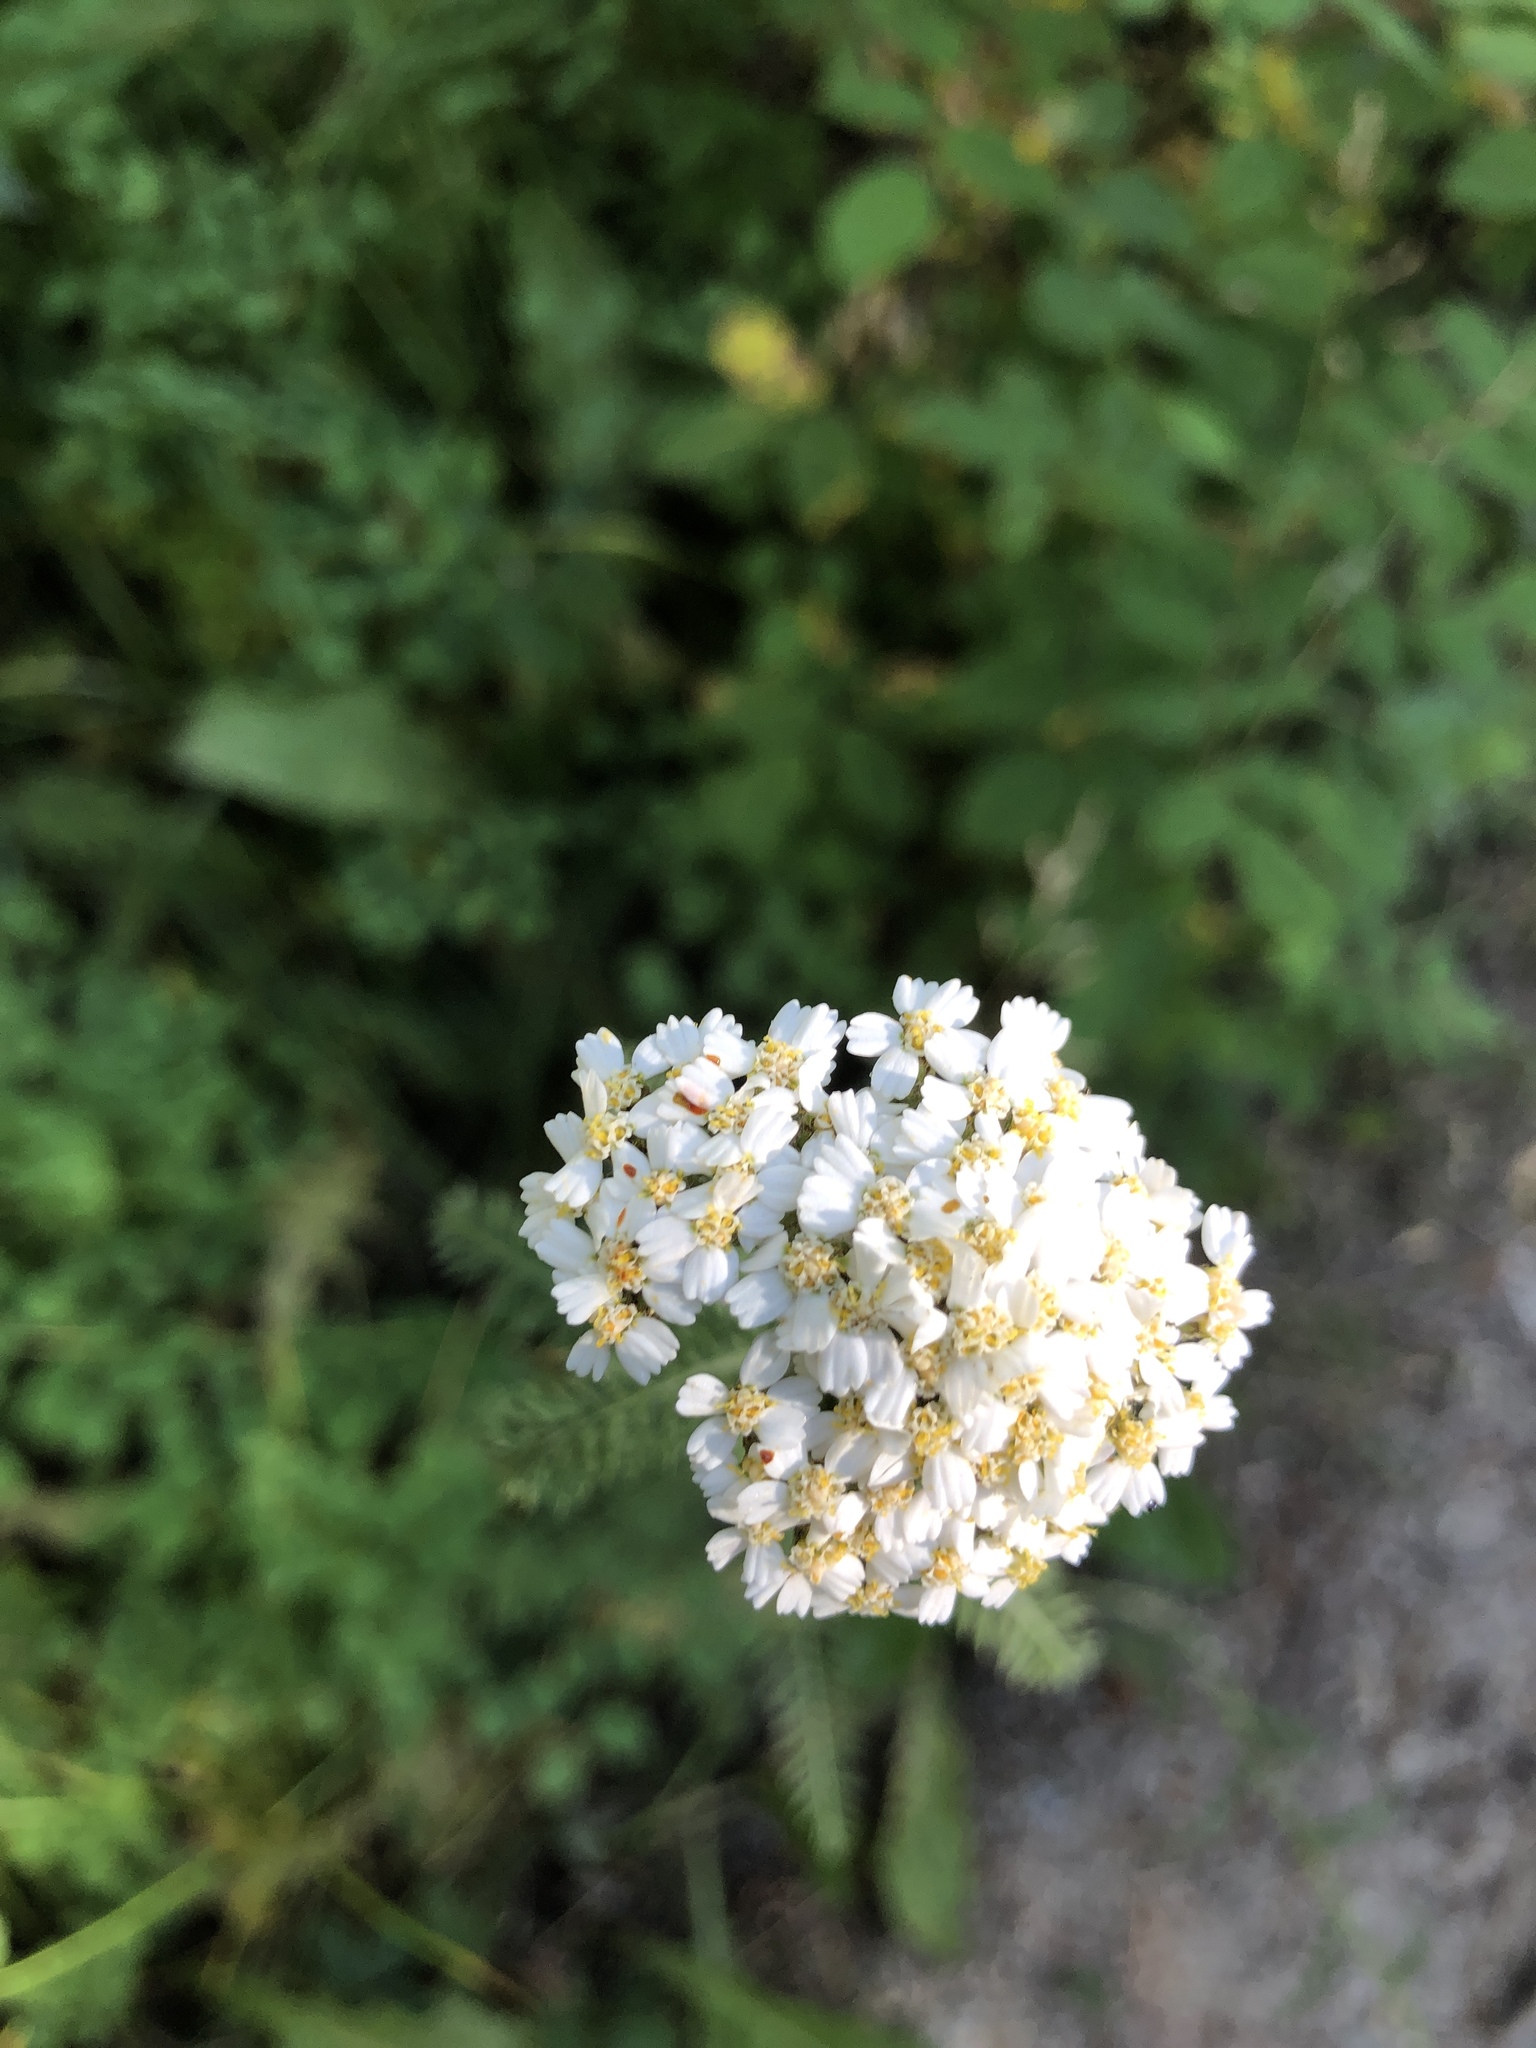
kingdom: Plantae
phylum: Tracheophyta
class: Magnoliopsida
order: Asterales
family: Asteraceae
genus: Achillea
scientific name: Achillea millefolium
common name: Yarrow
